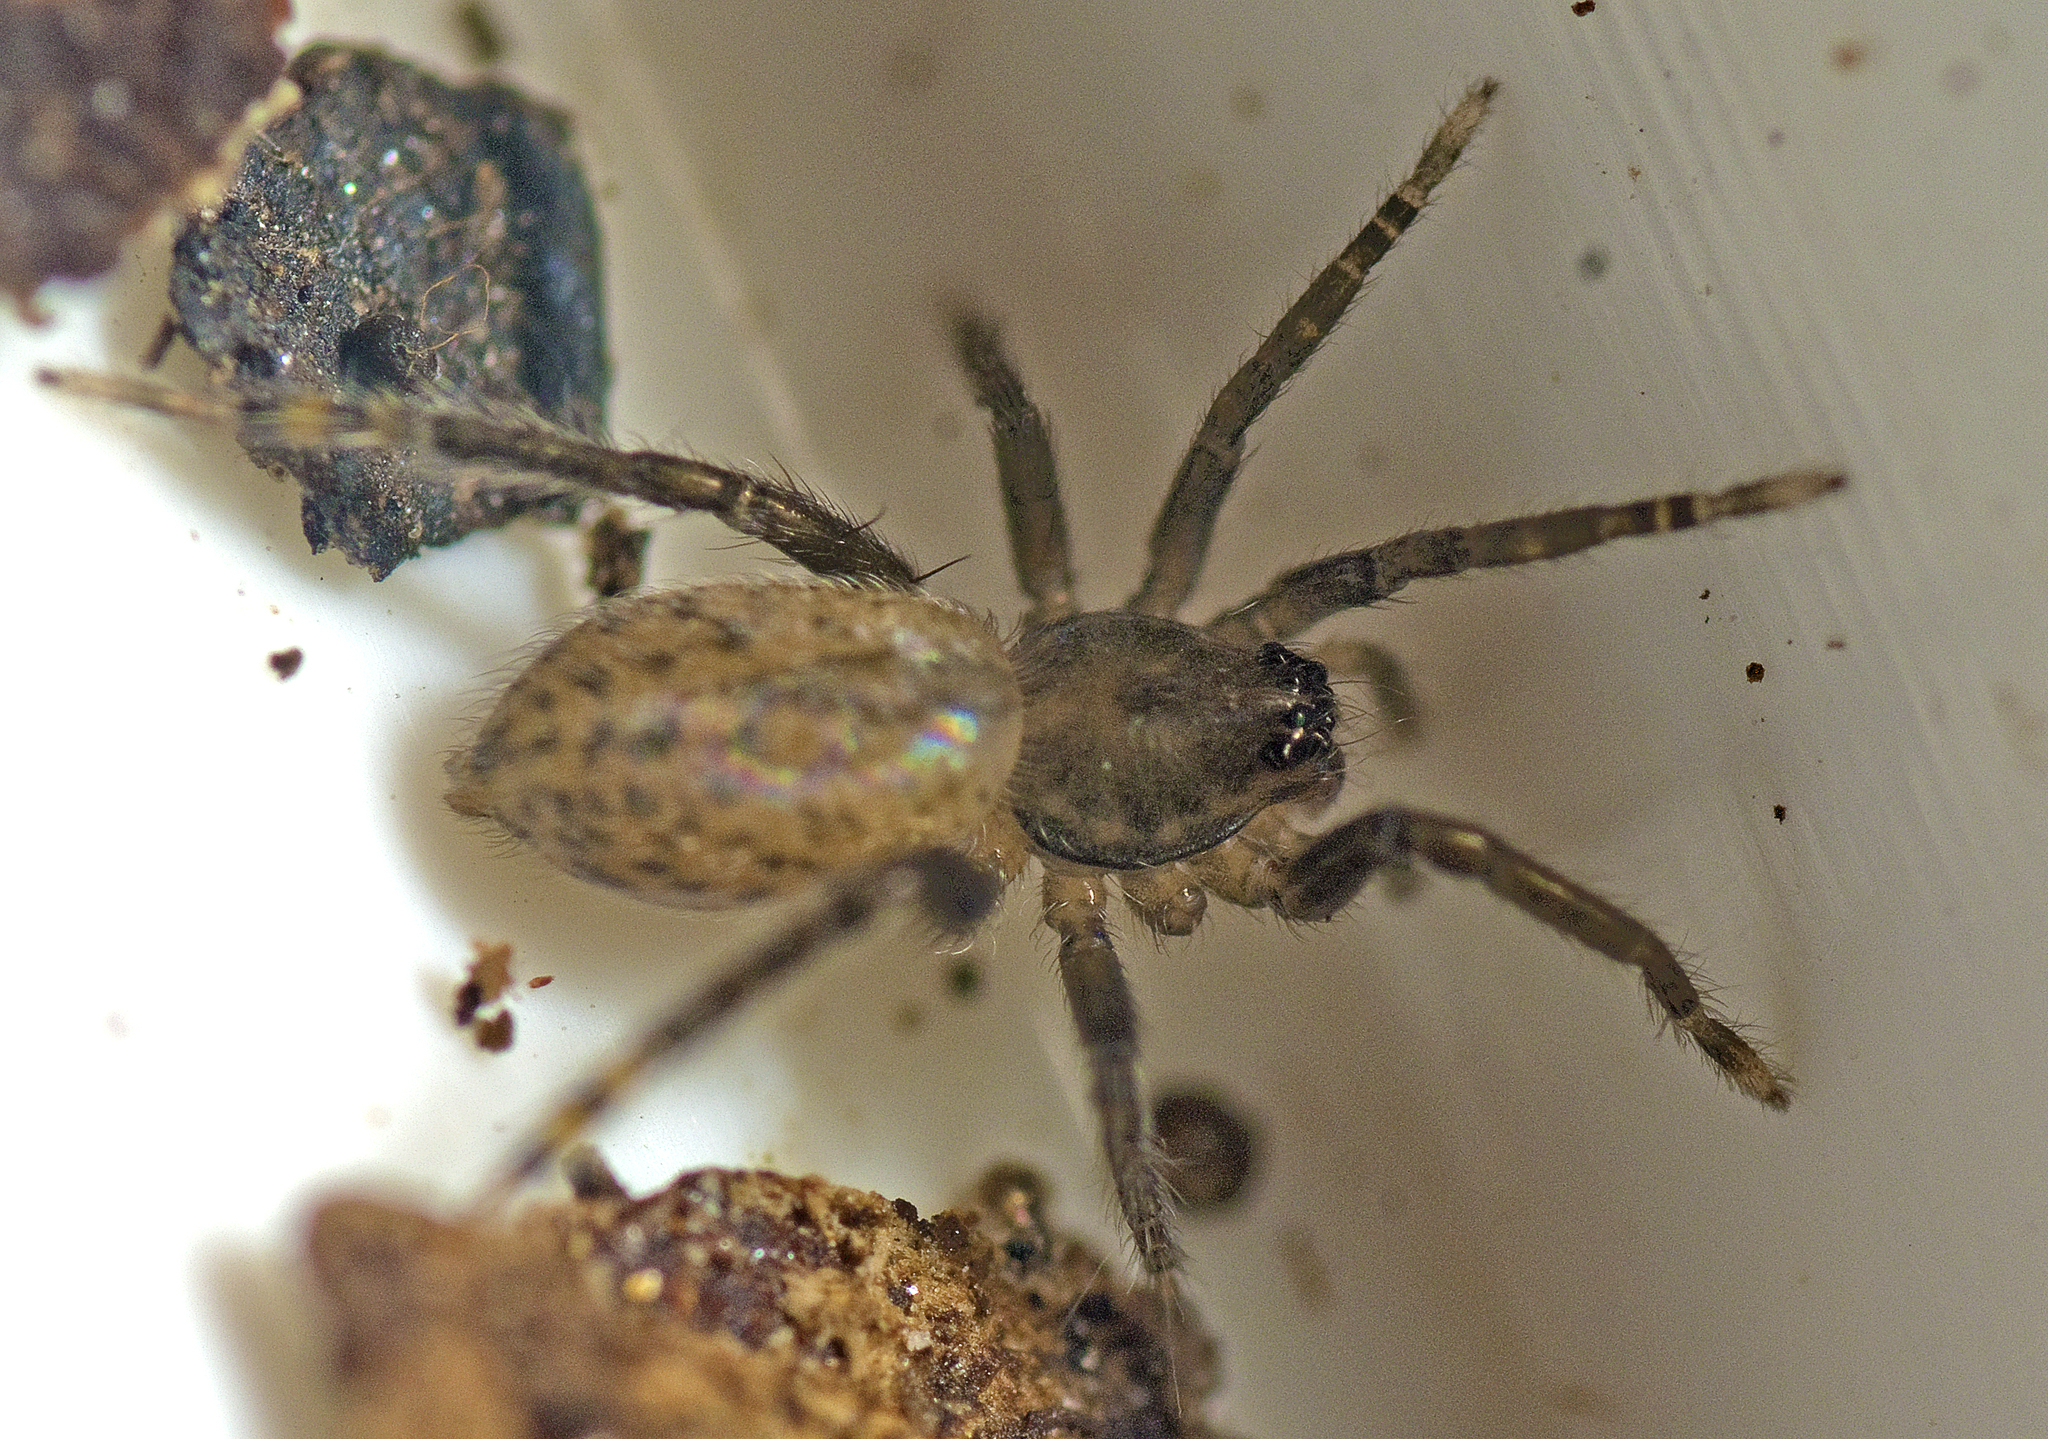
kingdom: Animalia
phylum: Arthropoda
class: Arachnida
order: Araneae
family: Miturgidae
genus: Nuliodon
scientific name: Nuliodon fishburni
